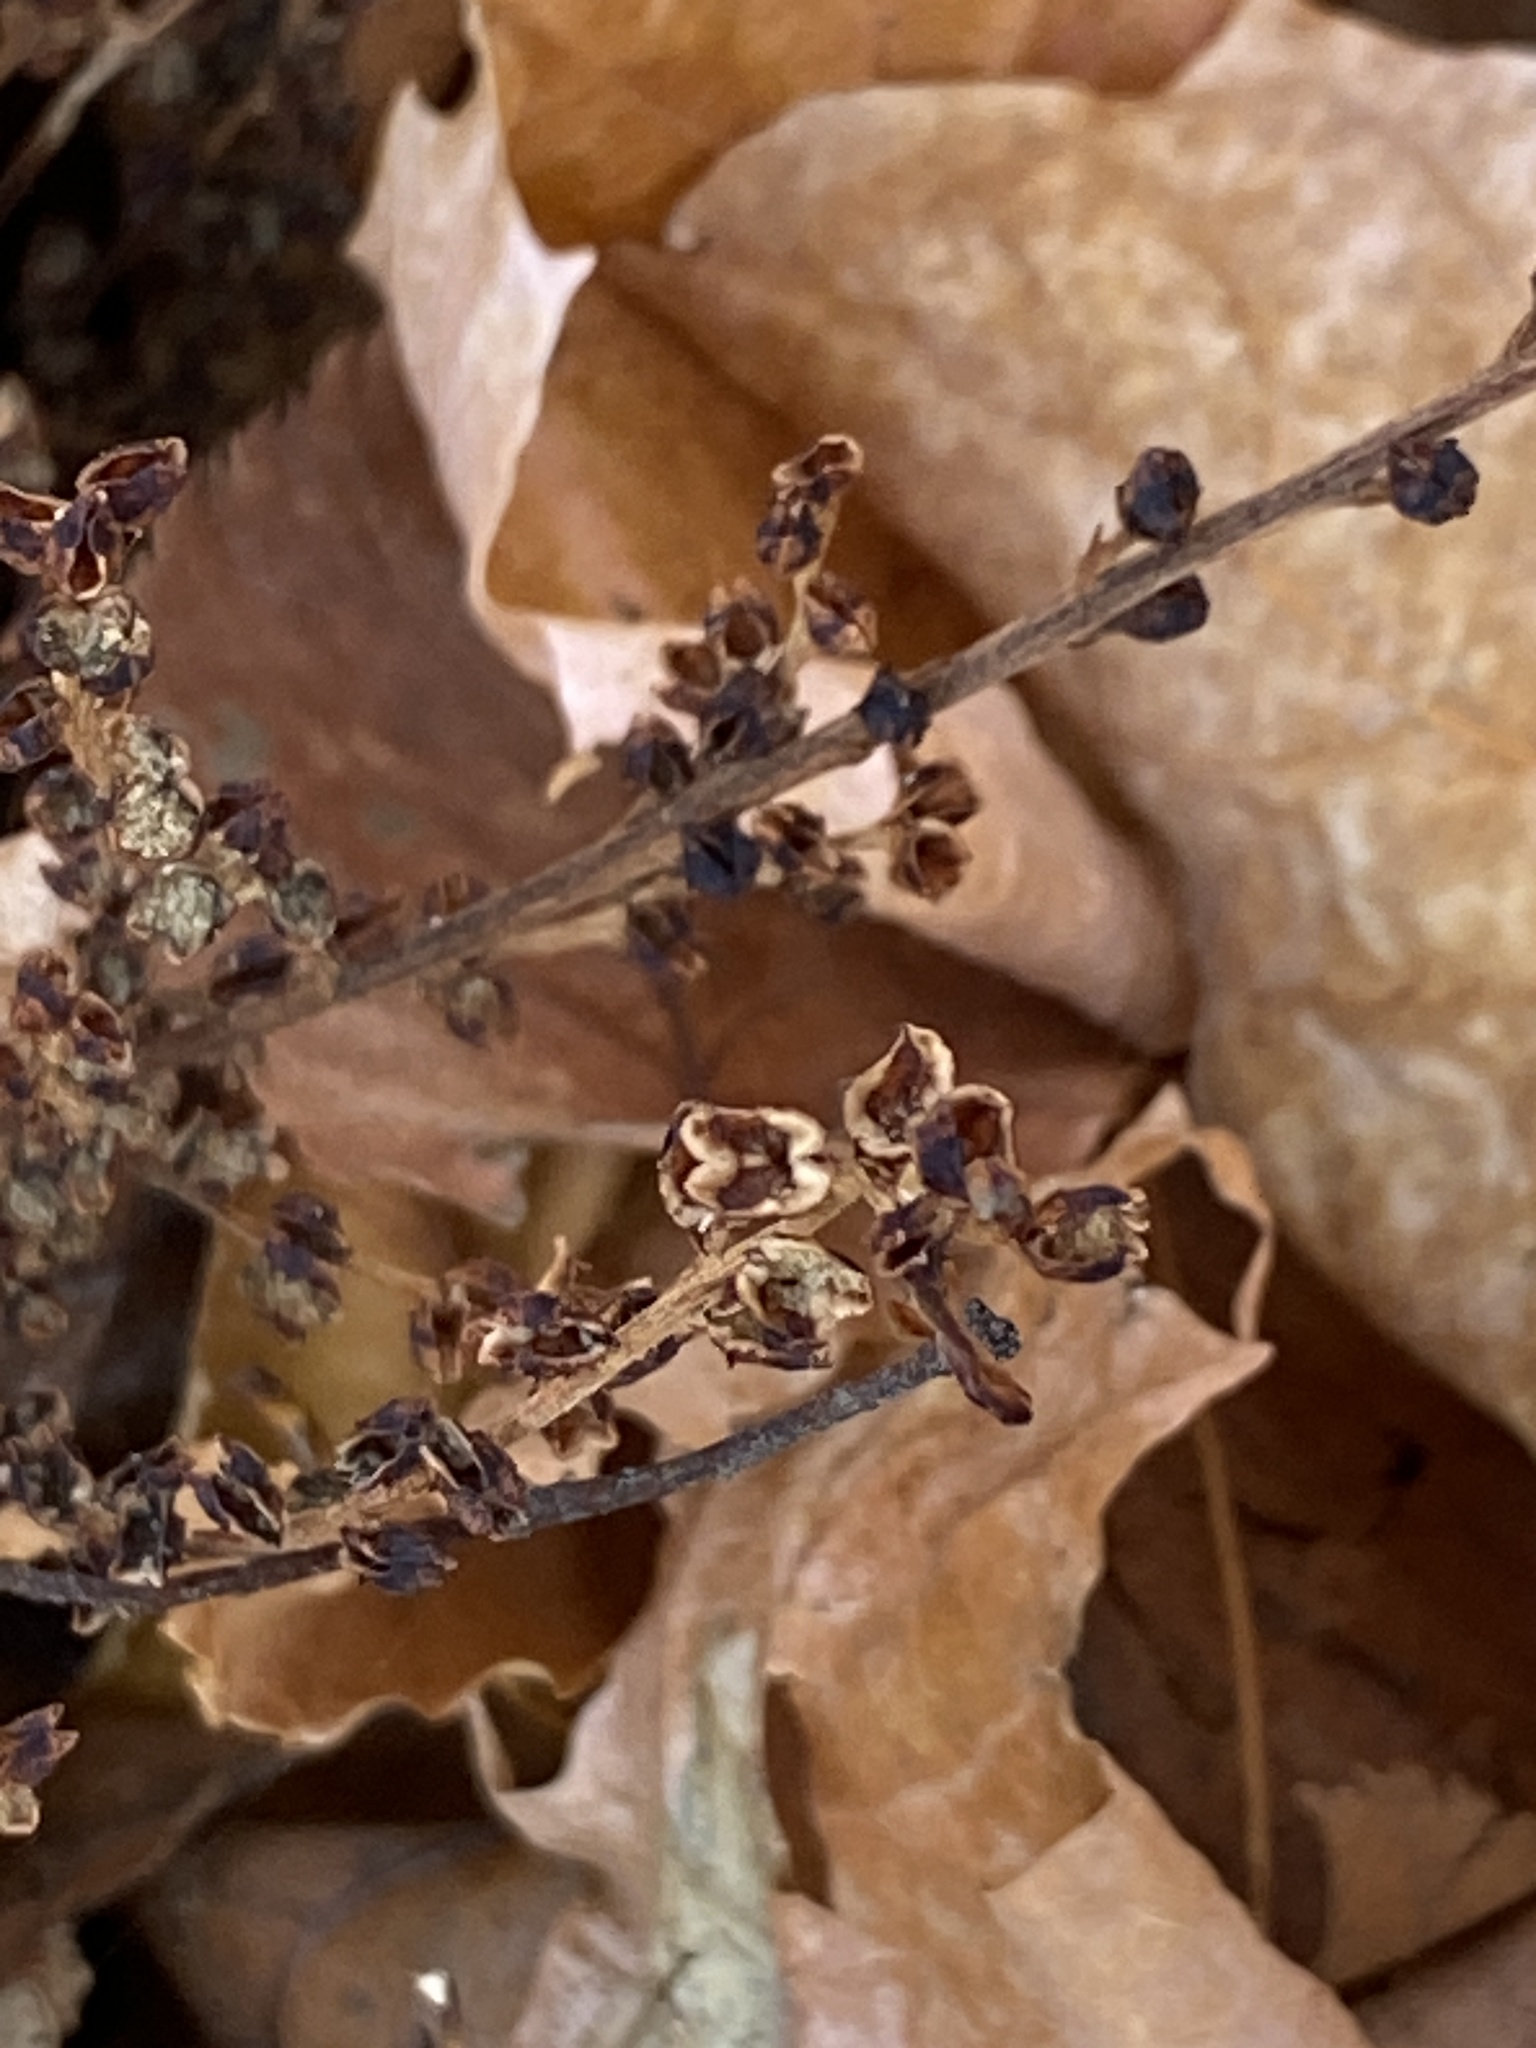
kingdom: Plantae
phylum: Tracheophyta
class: Magnoliopsida
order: Lamiales
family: Orobanchaceae
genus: Epifagus
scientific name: Epifagus virginiana
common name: Beechdrops
